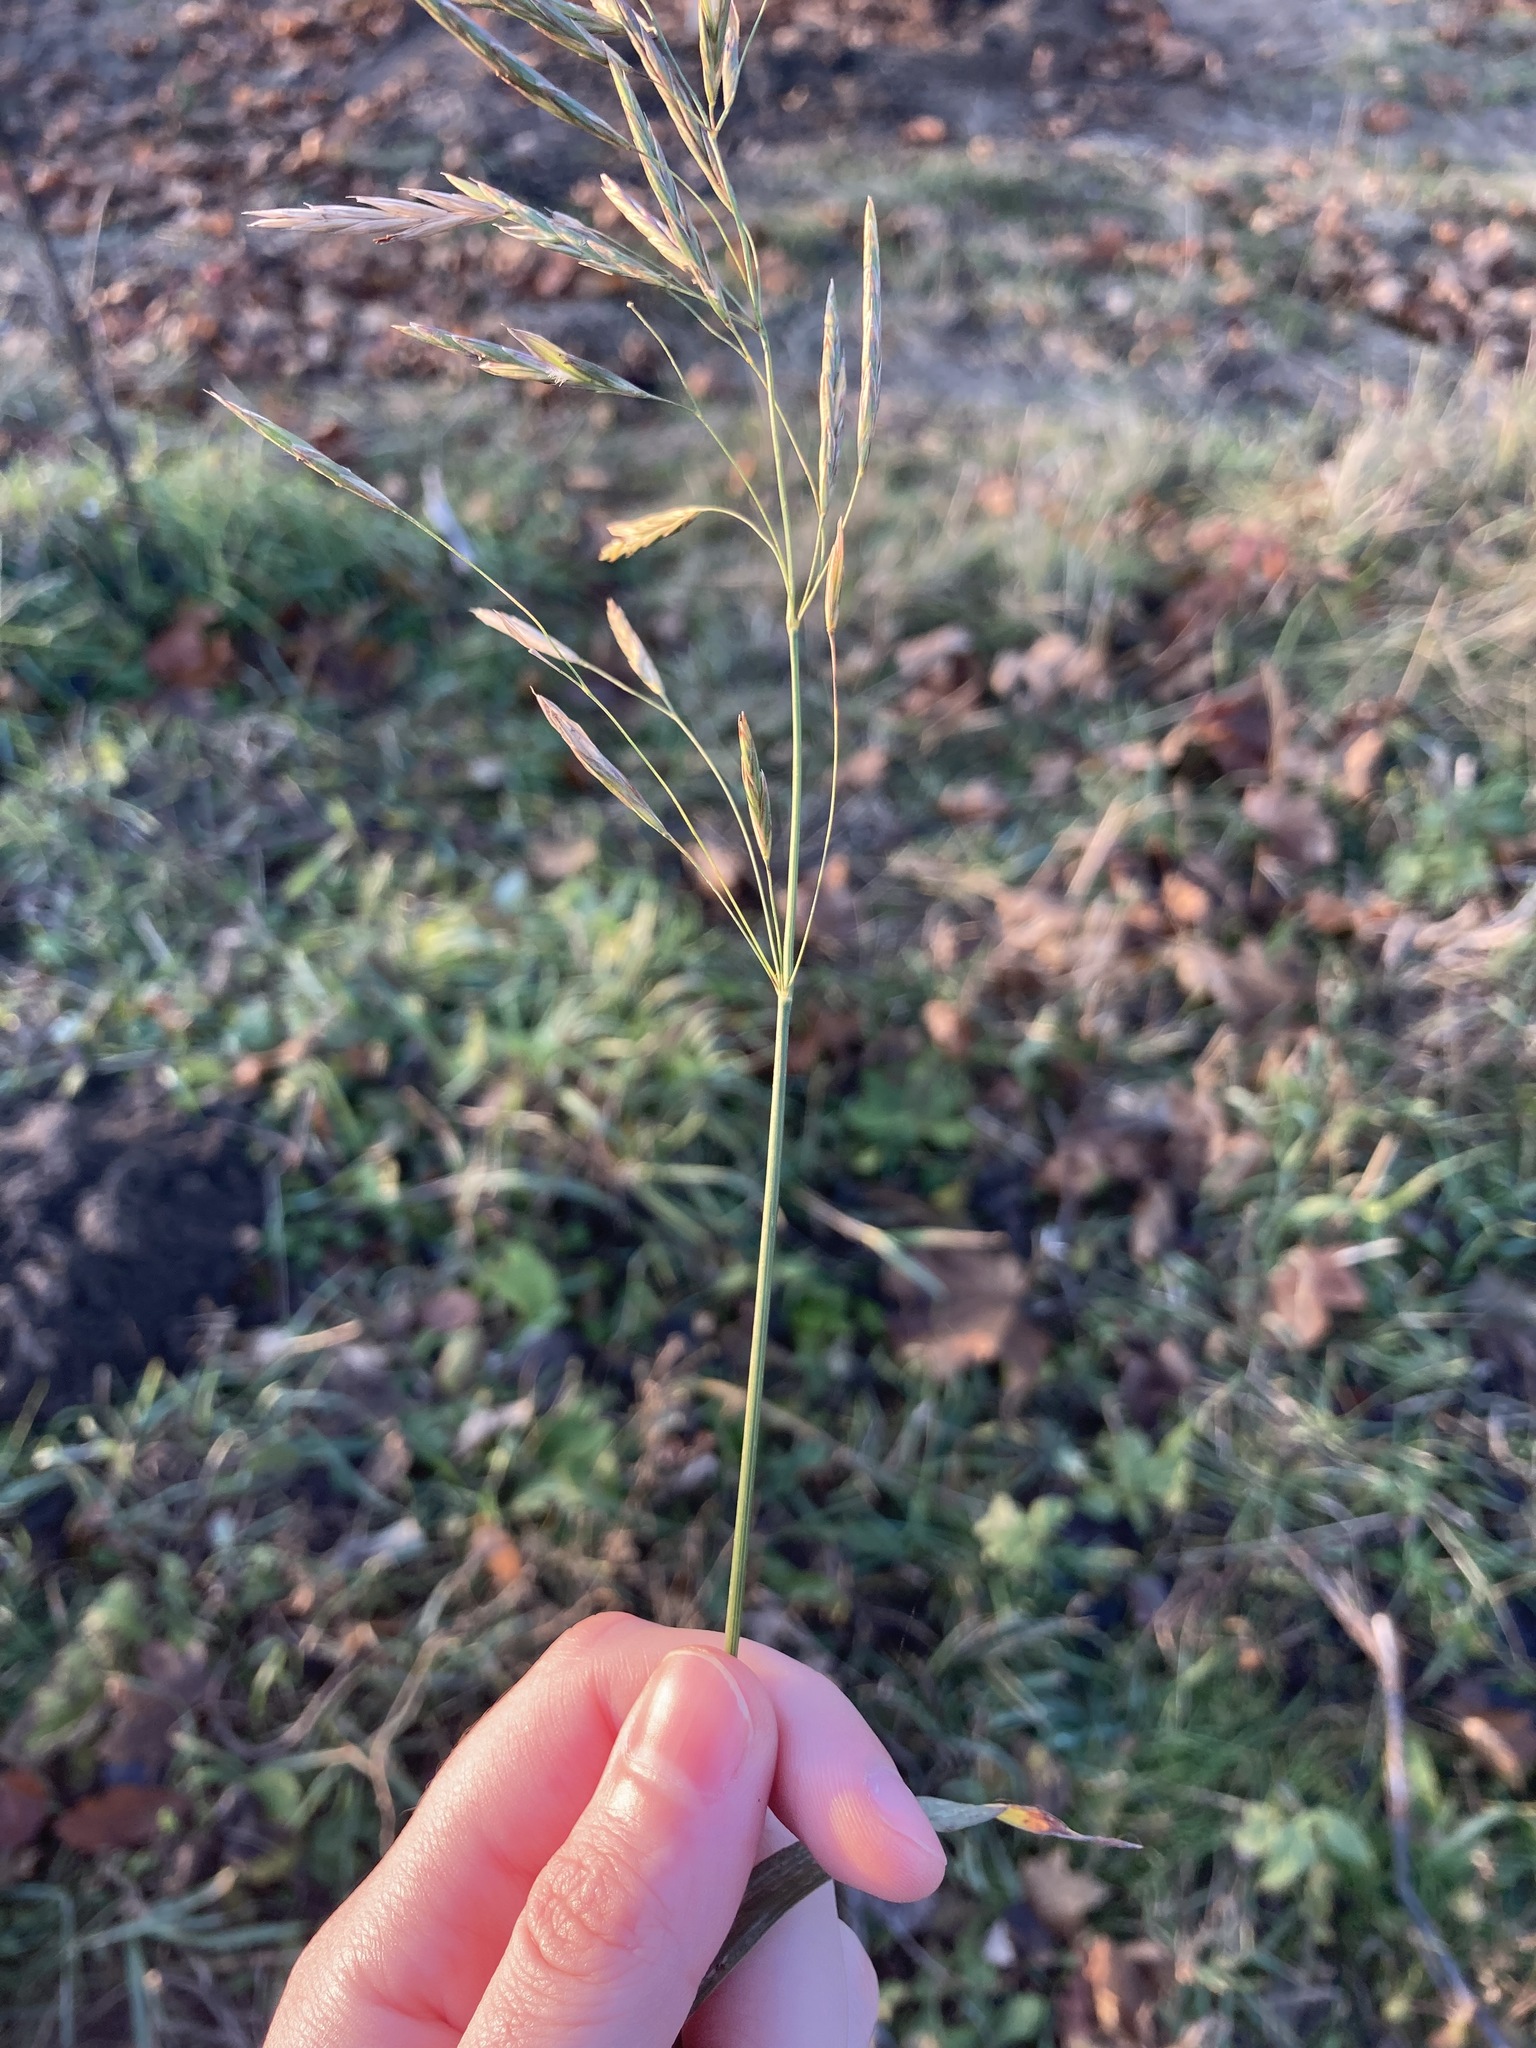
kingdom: Plantae
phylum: Tracheophyta
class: Liliopsida
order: Poales
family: Poaceae
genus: Bromus
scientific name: Bromus inermis
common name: Smooth brome
